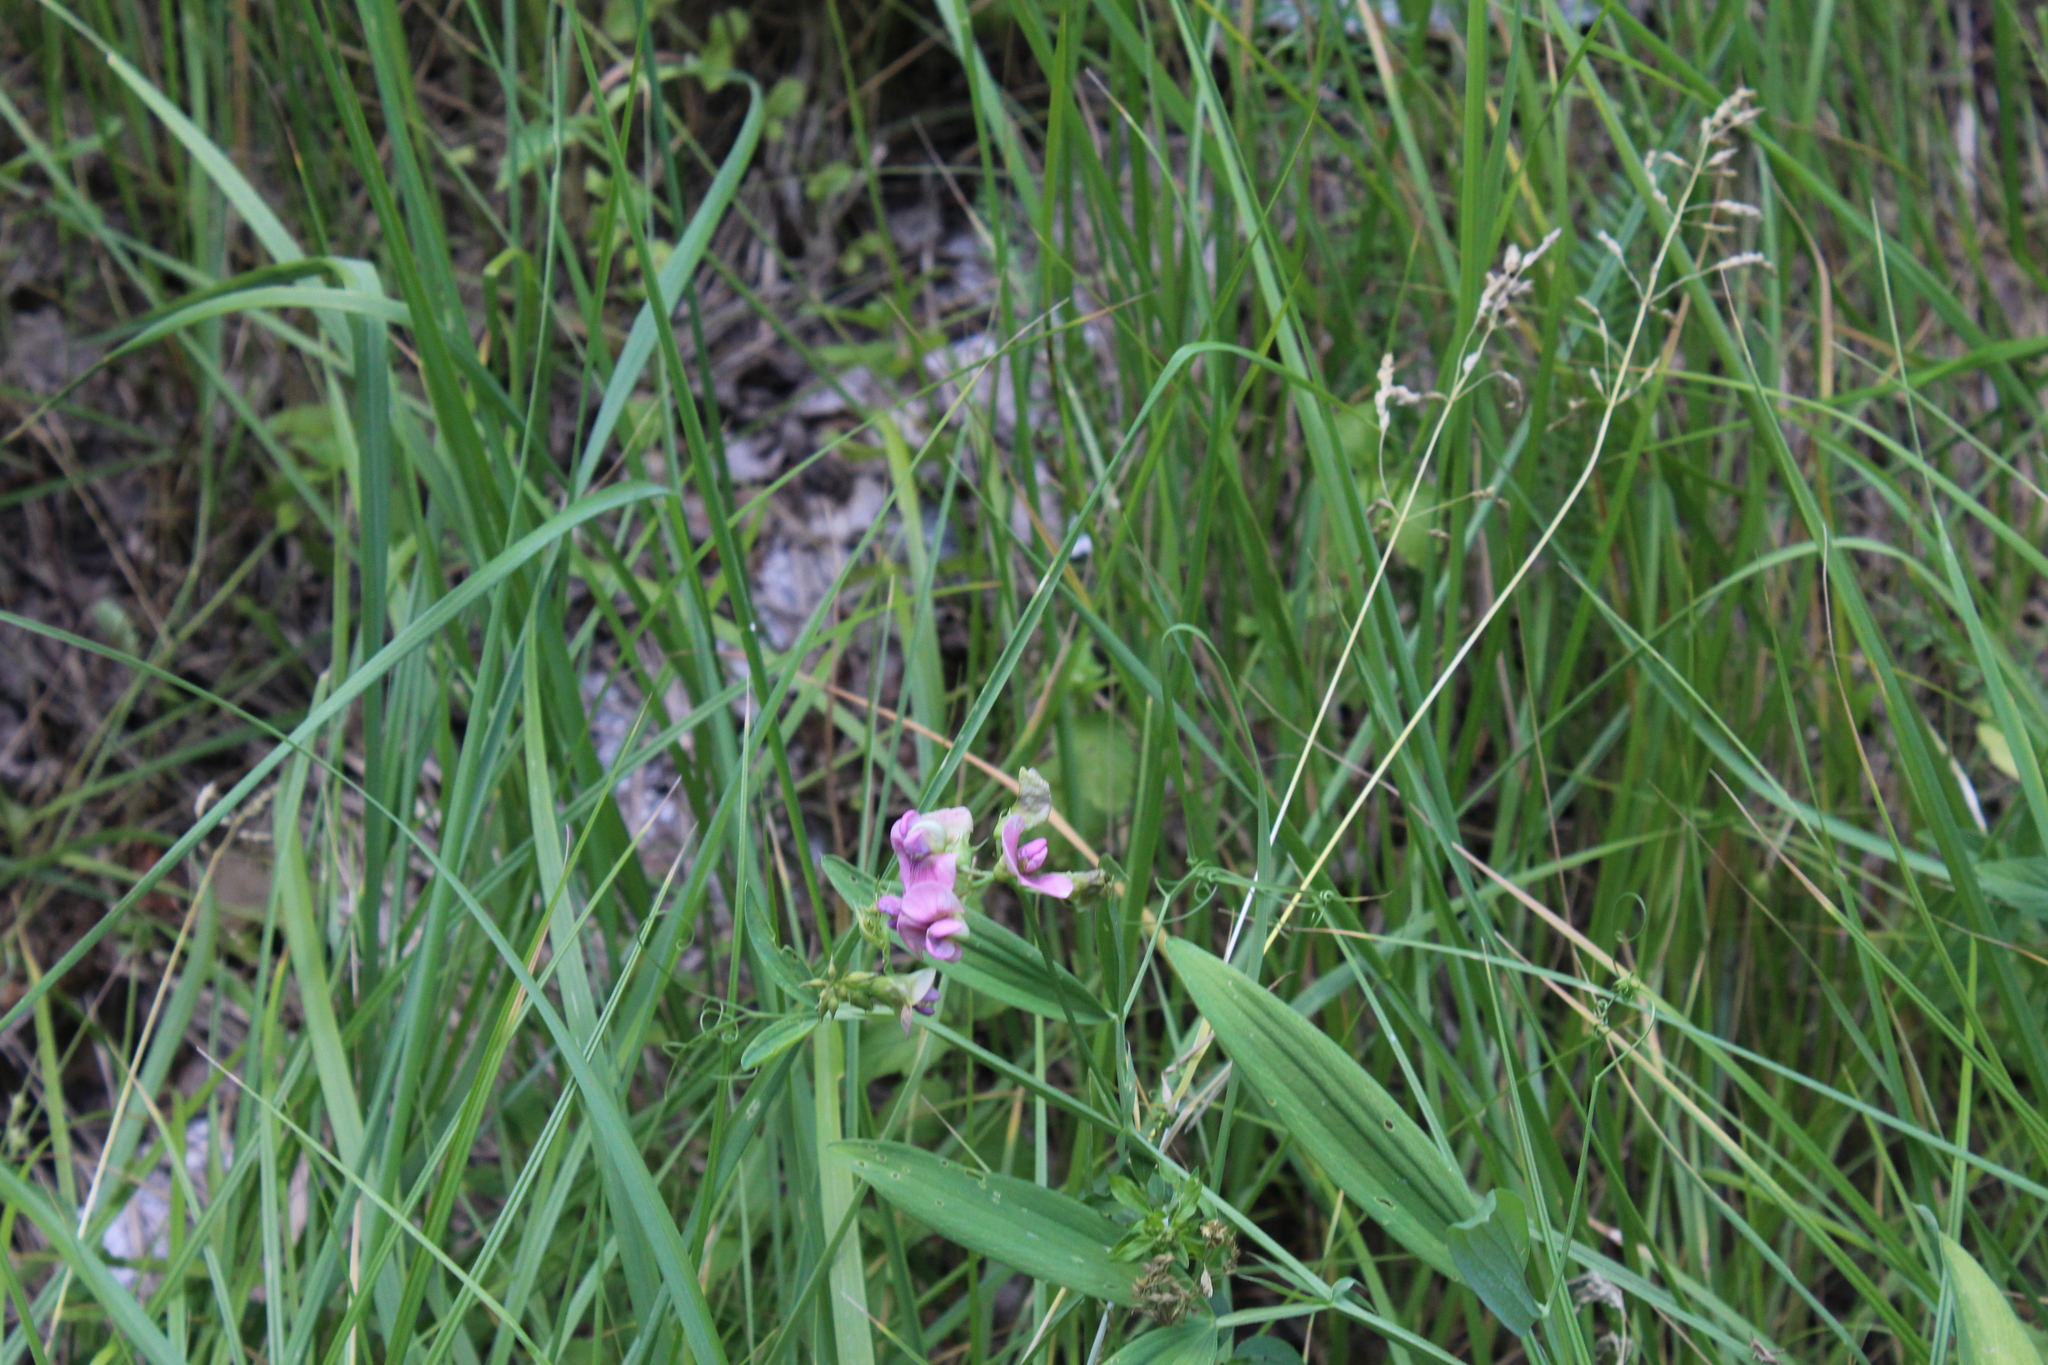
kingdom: Plantae
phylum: Tracheophyta
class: Magnoliopsida
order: Fabales
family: Fabaceae
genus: Lathyrus
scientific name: Lathyrus sylvestris
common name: Flat pea
